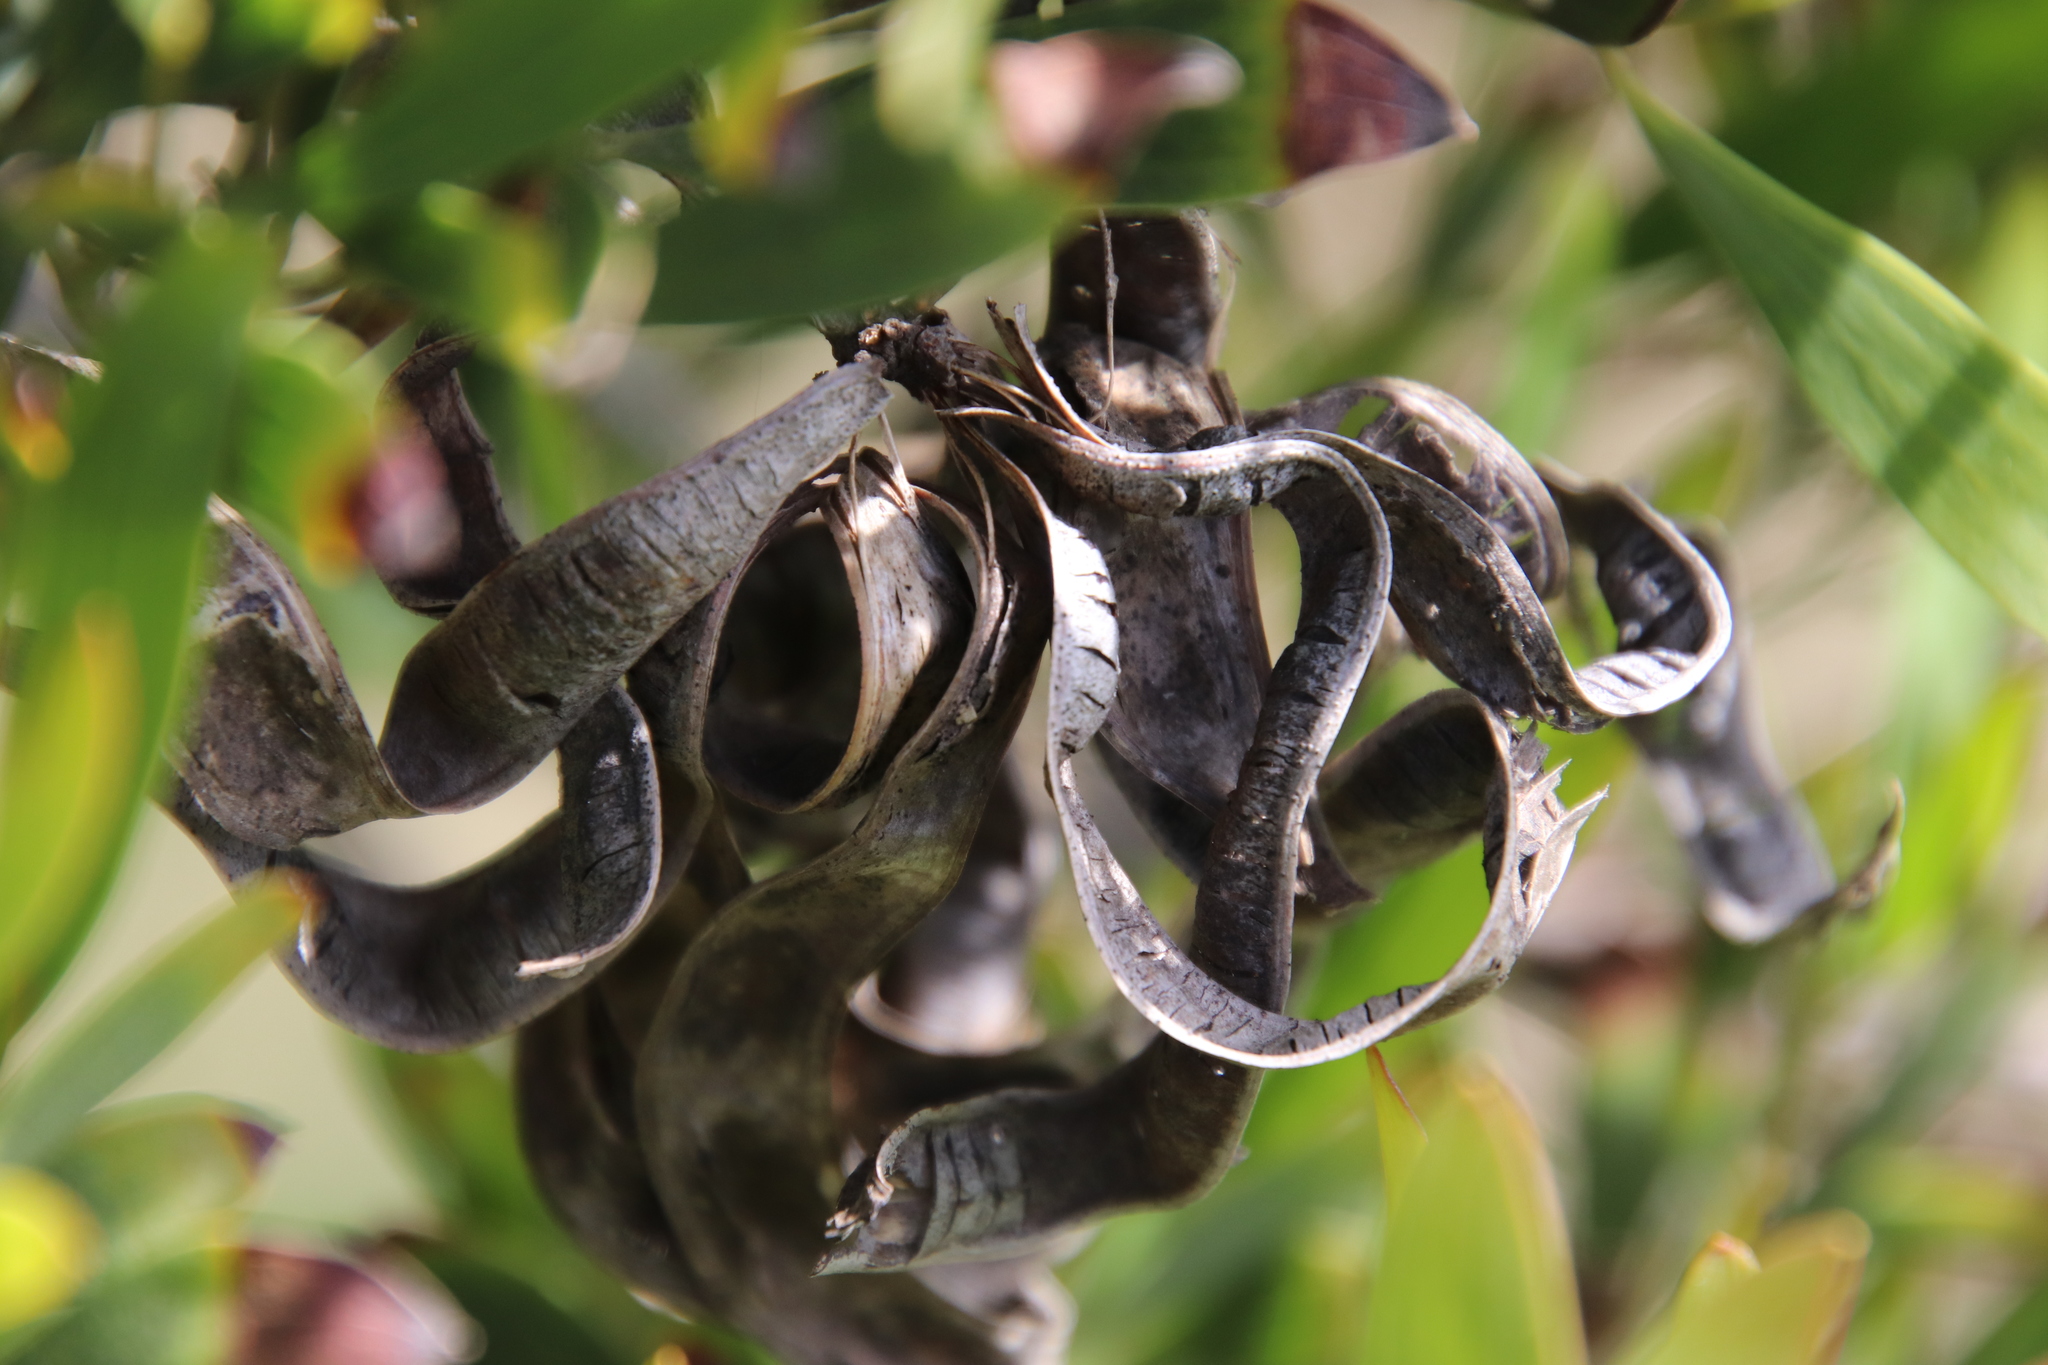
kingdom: Plantae
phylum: Tracheophyta
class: Magnoliopsida
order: Fabales
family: Fabaceae
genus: Acacia
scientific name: Acacia cyclops
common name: Coastal wattle
